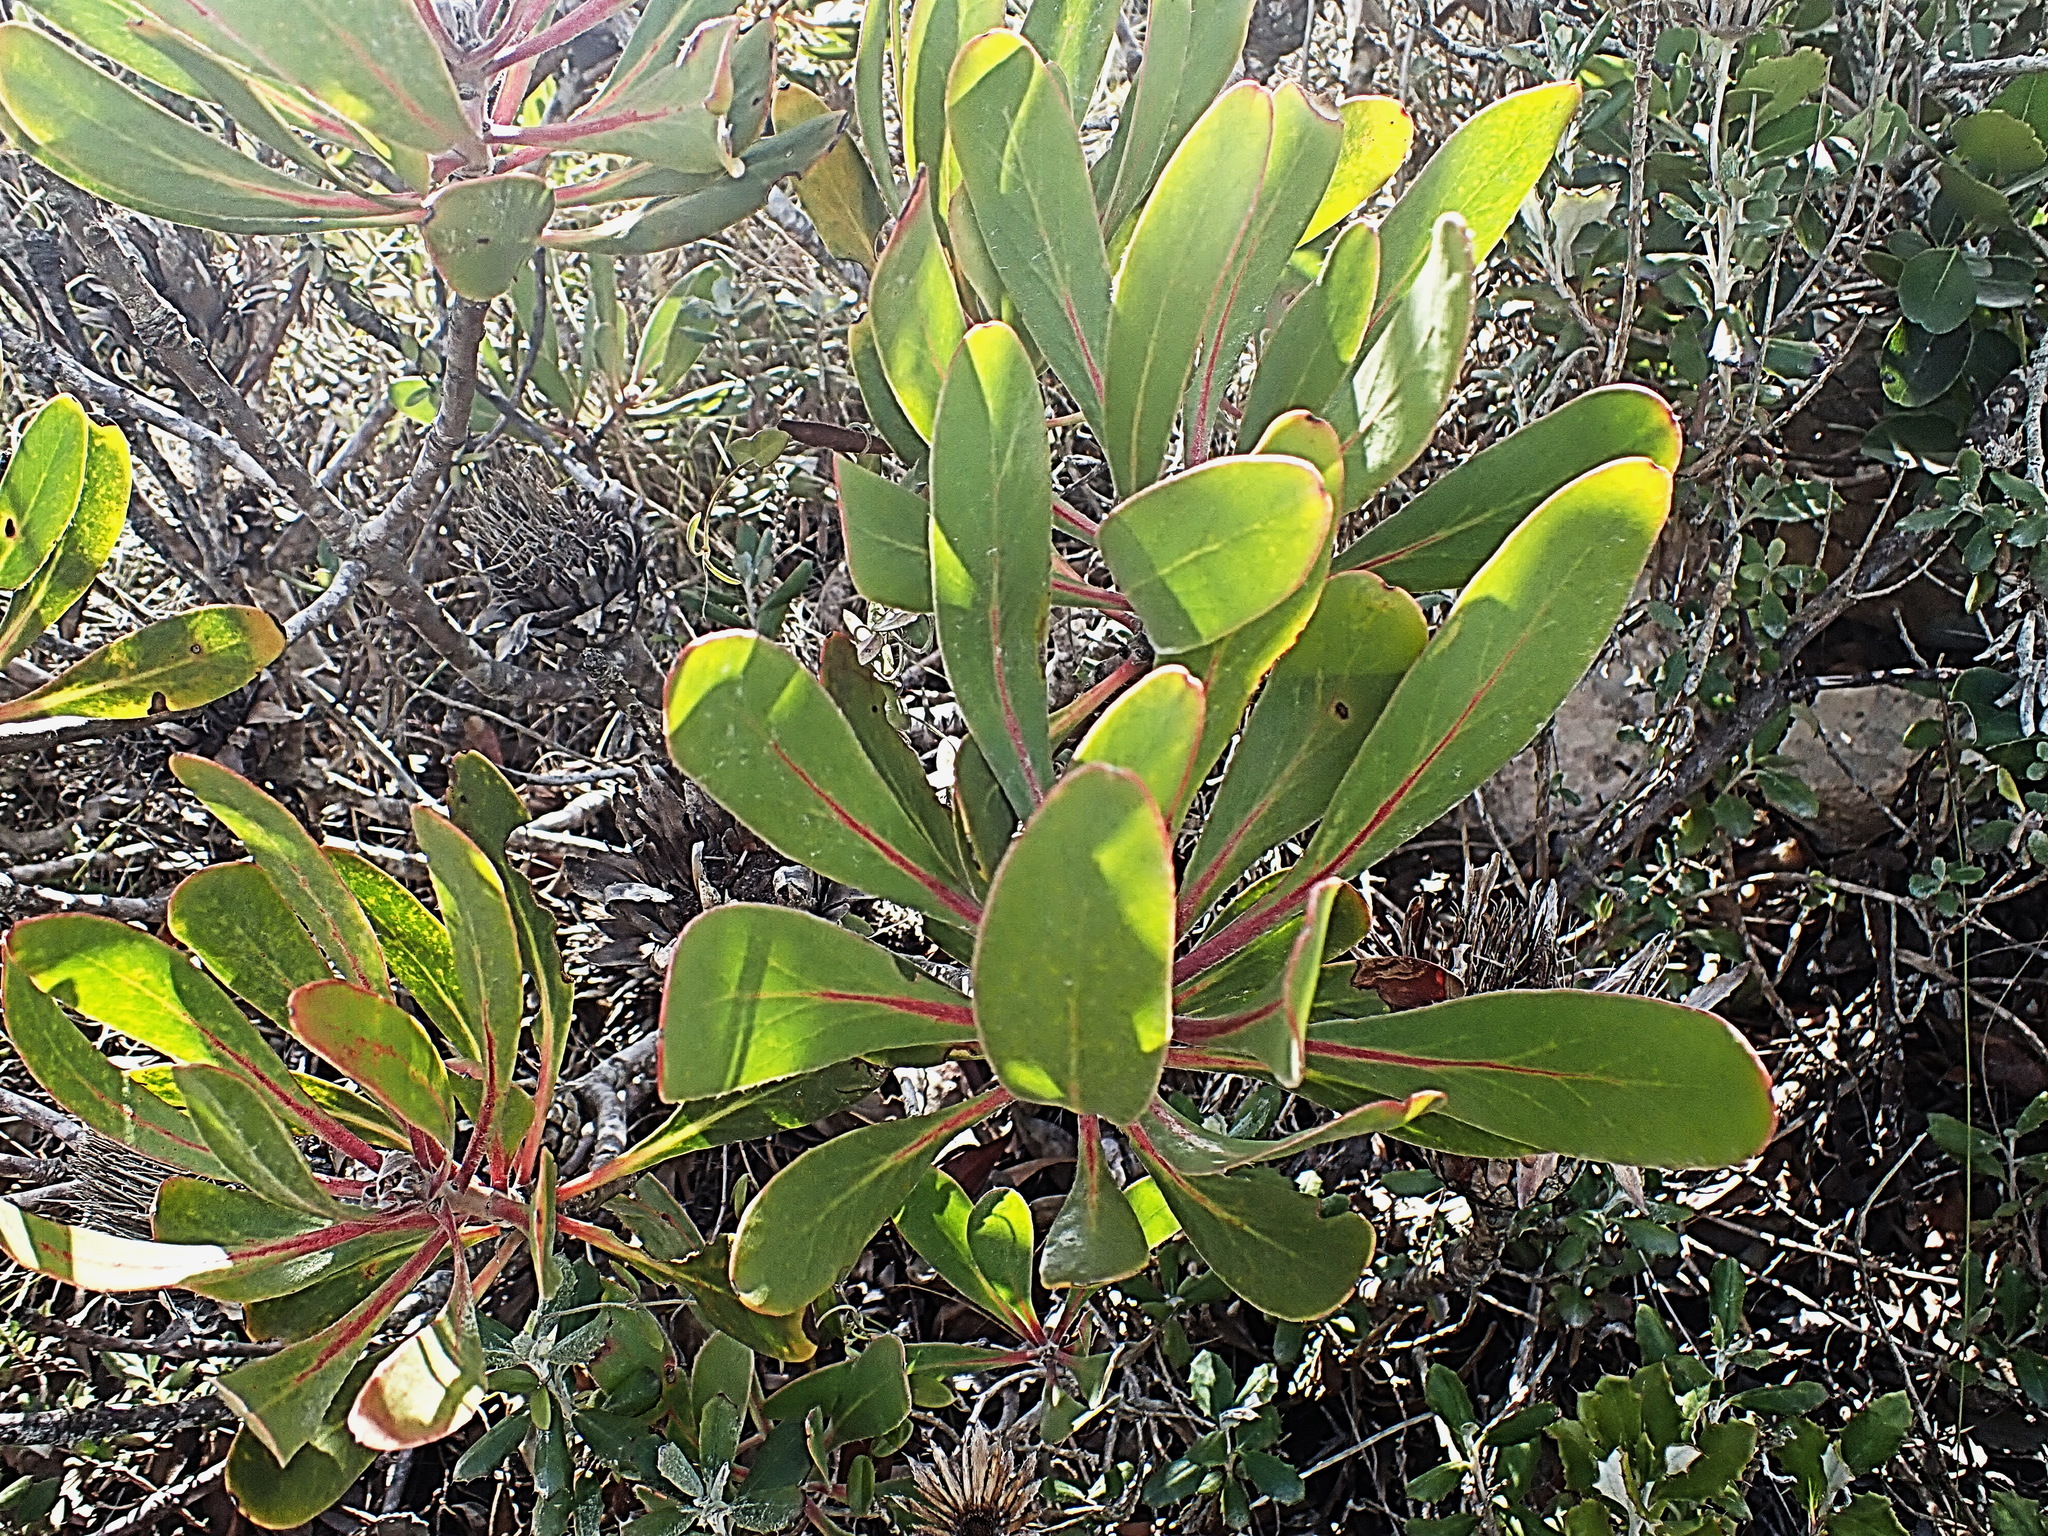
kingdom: Plantae
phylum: Tracheophyta
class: Magnoliopsida
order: Proteales
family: Proteaceae
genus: Protea
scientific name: Protea obtusifolia
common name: Bredasdorp sugarbush
